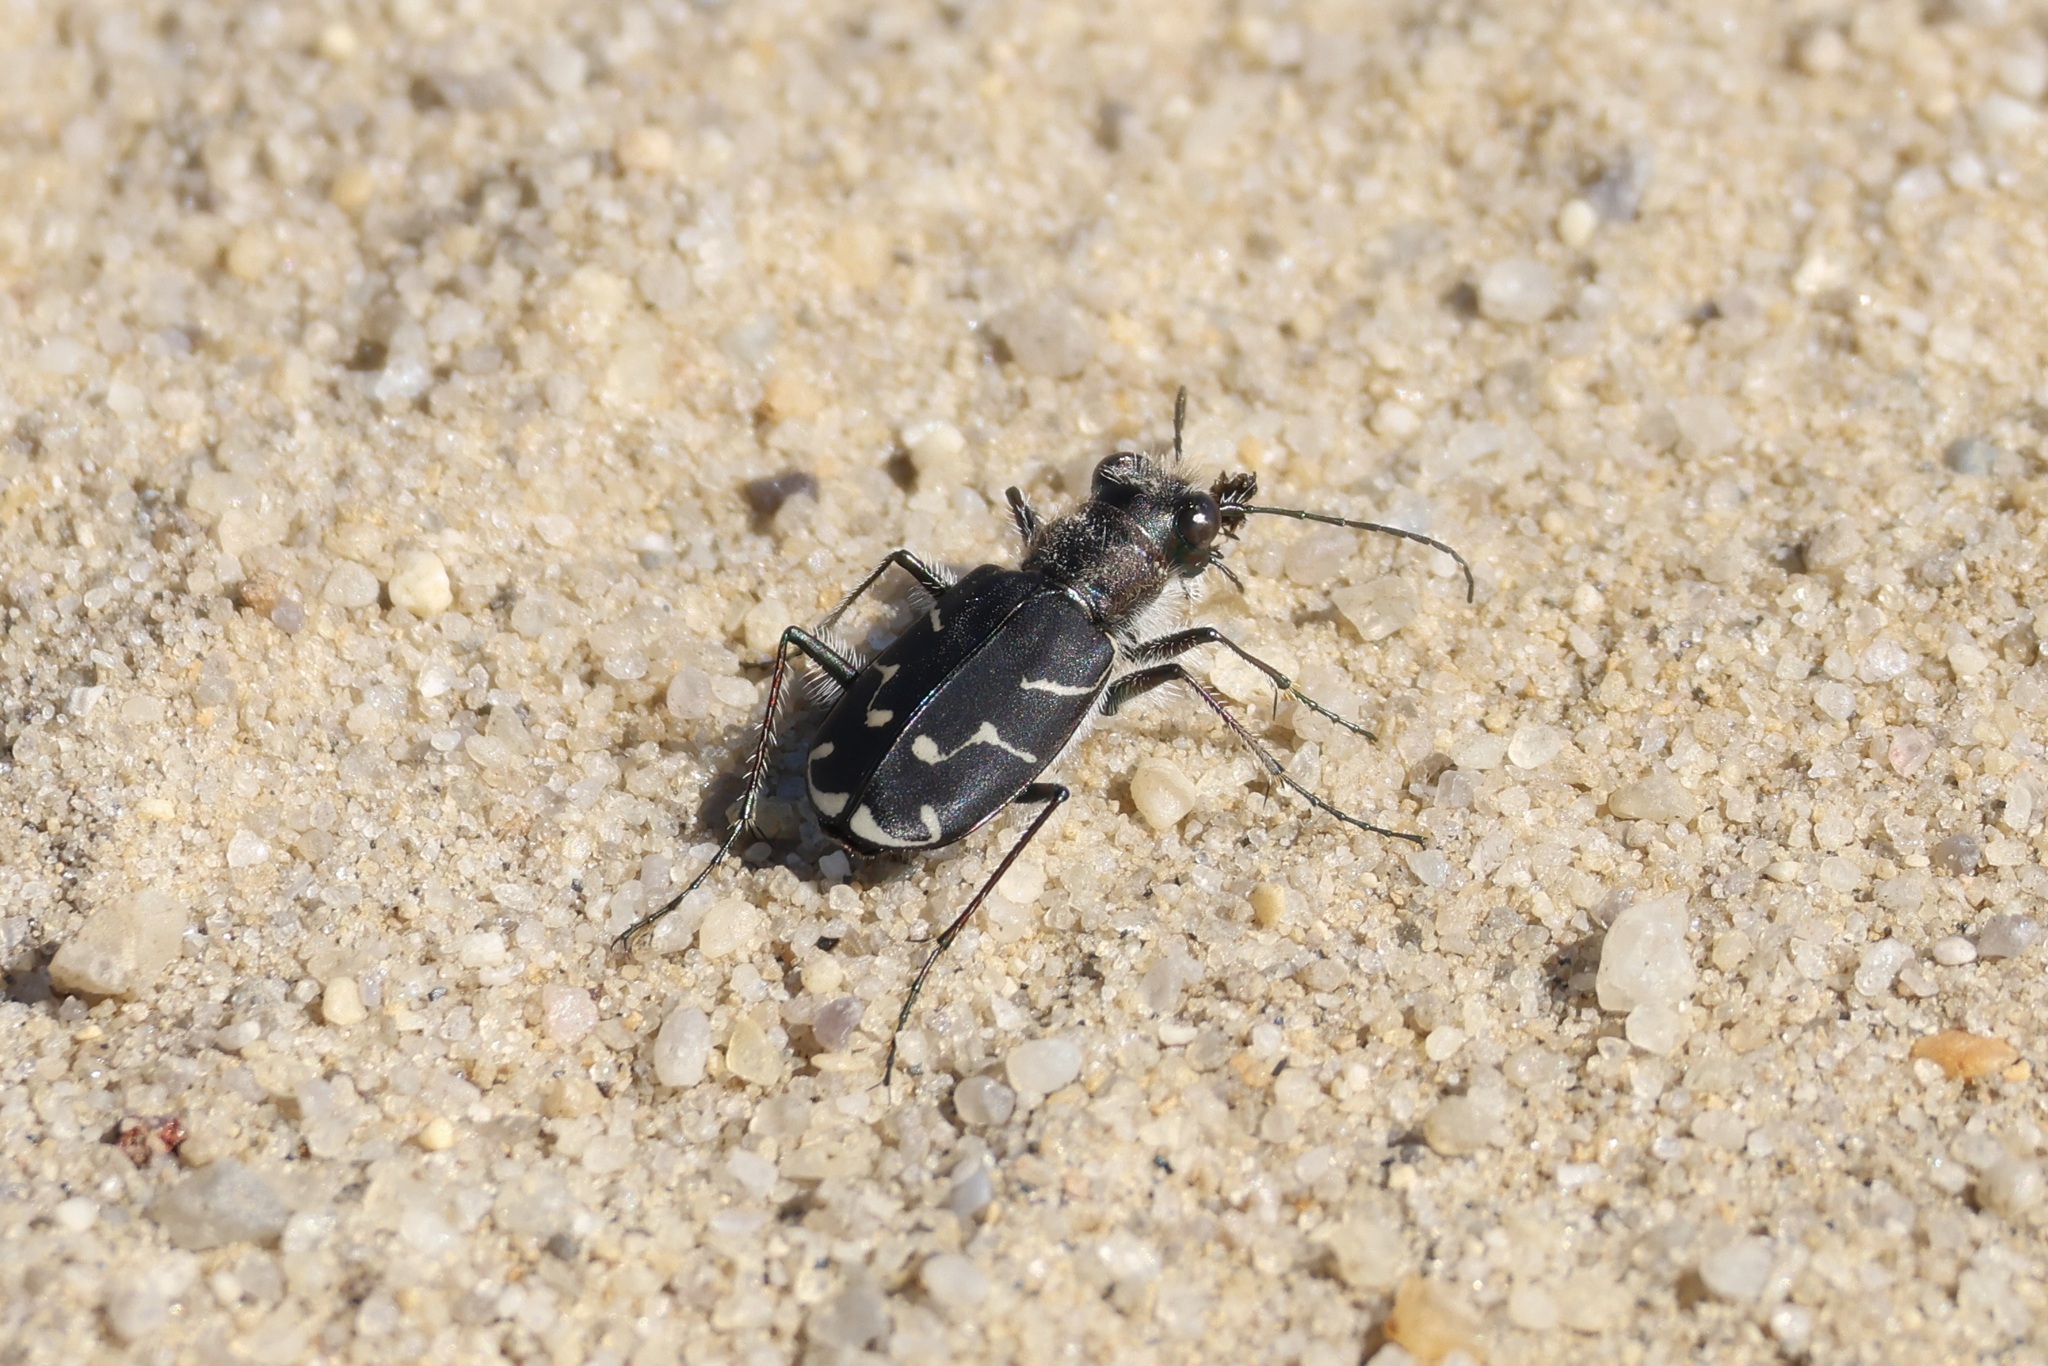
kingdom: Animalia
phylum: Arthropoda
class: Insecta
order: Coleoptera
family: Carabidae
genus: Cicindela
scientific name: Cicindela tranquebarica
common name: Oblique-lined tiger beetle
